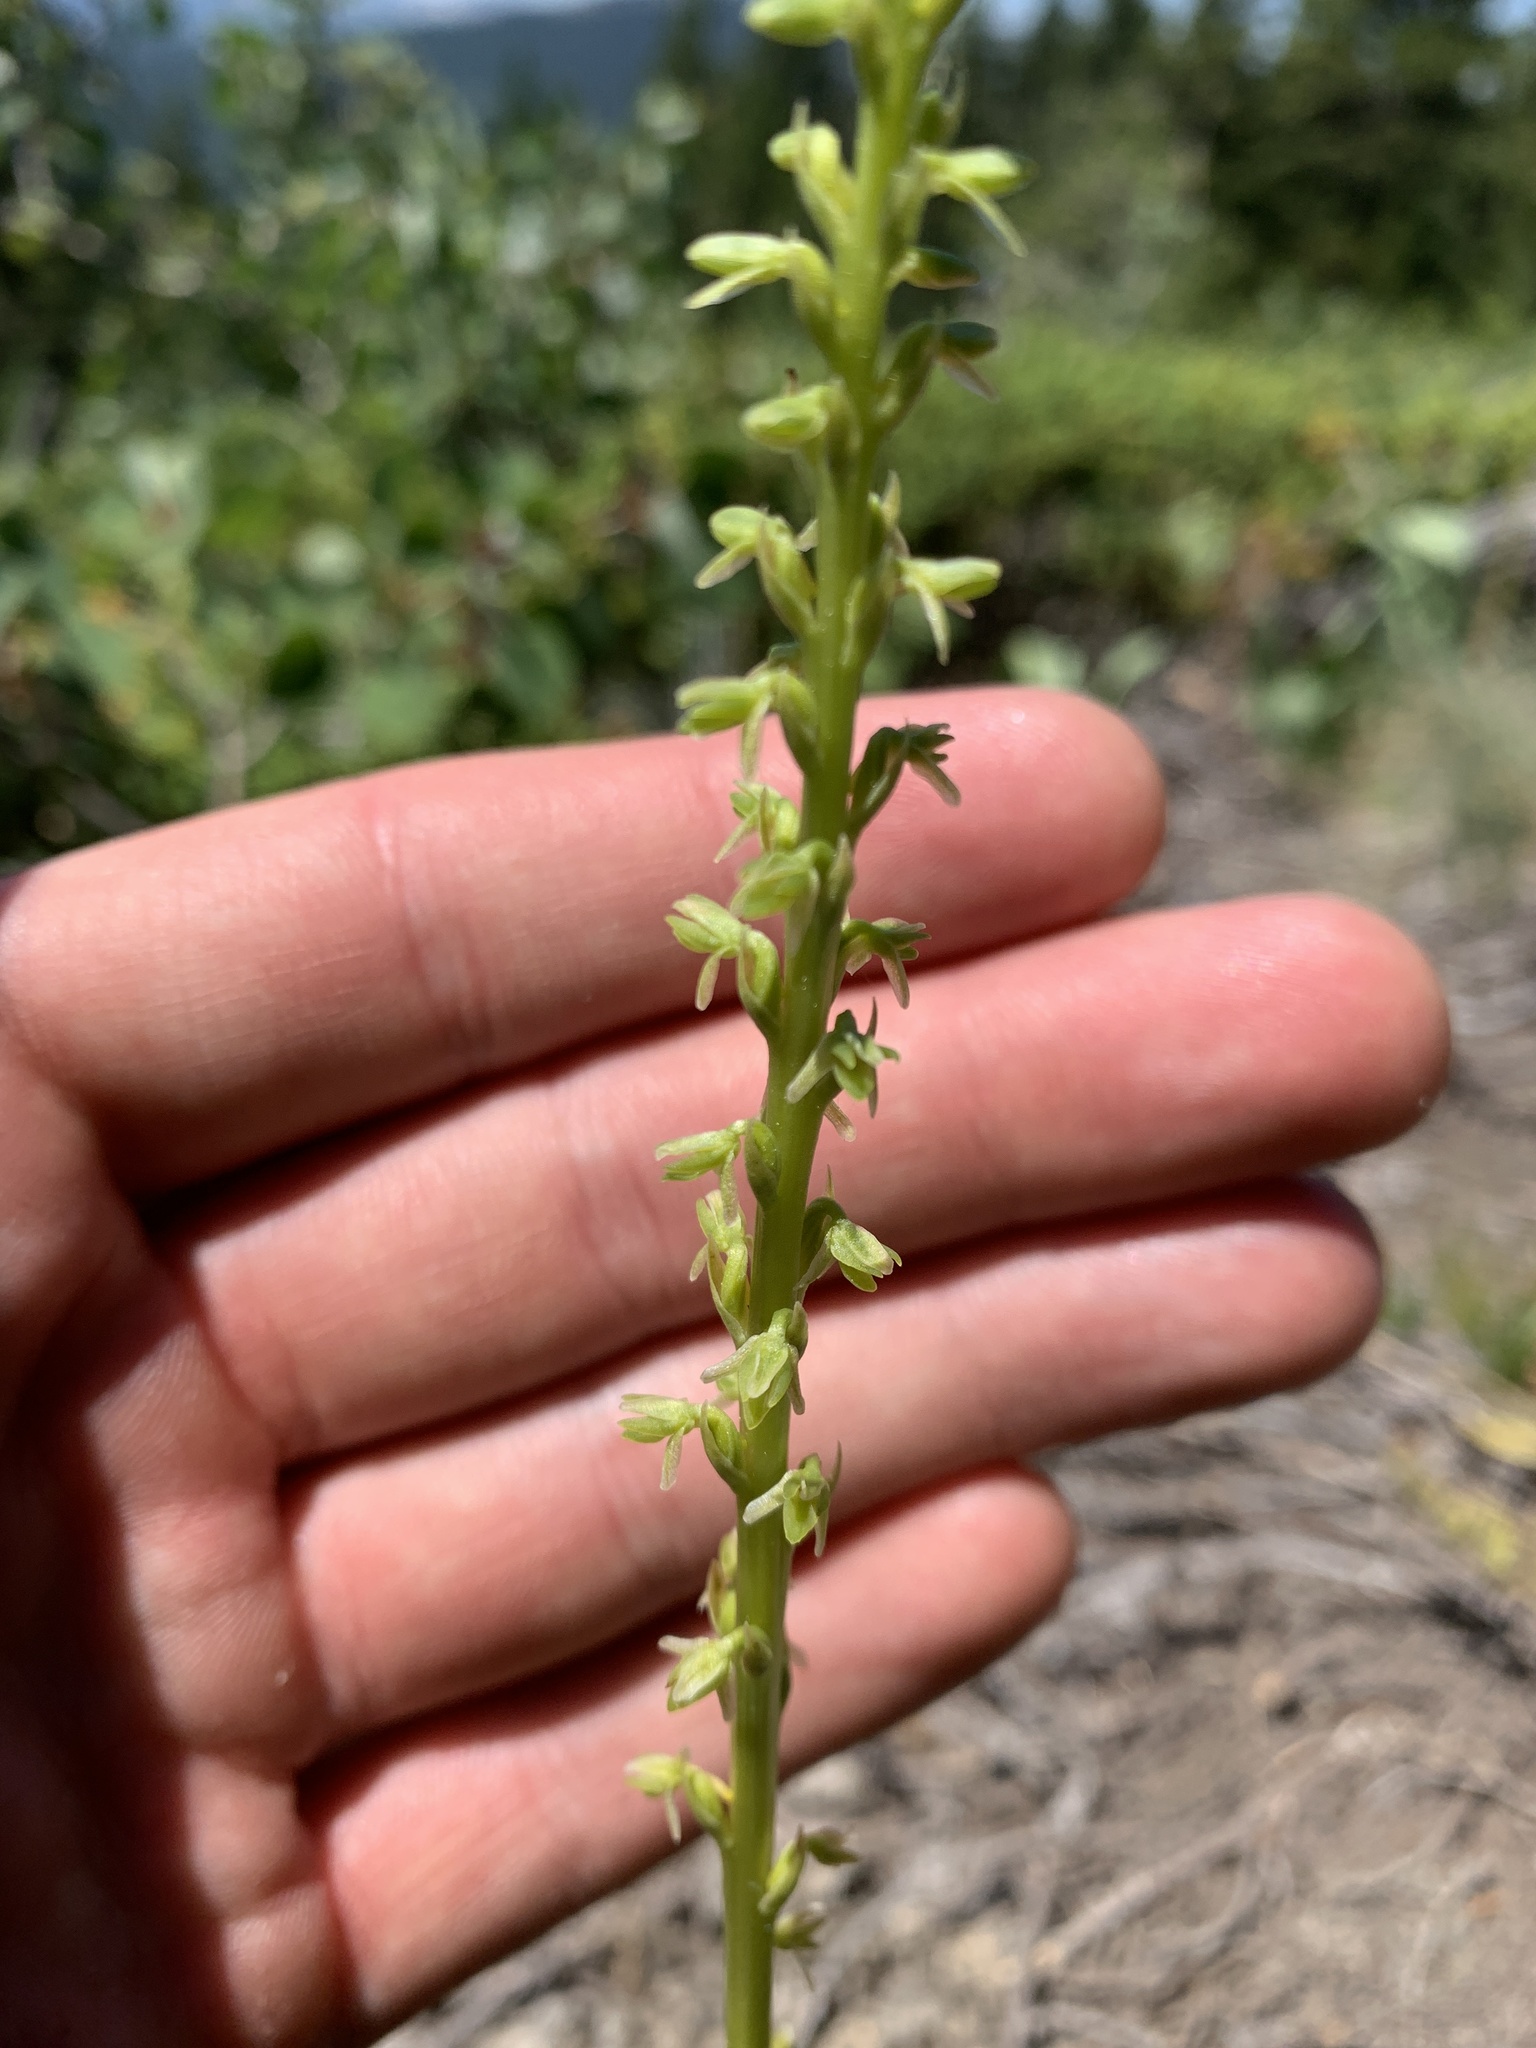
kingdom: Plantae
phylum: Tracheophyta
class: Liliopsida
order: Asparagales
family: Orchidaceae
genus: Platanthera
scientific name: Platanthera unalascensis
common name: Alaska bog orchid
